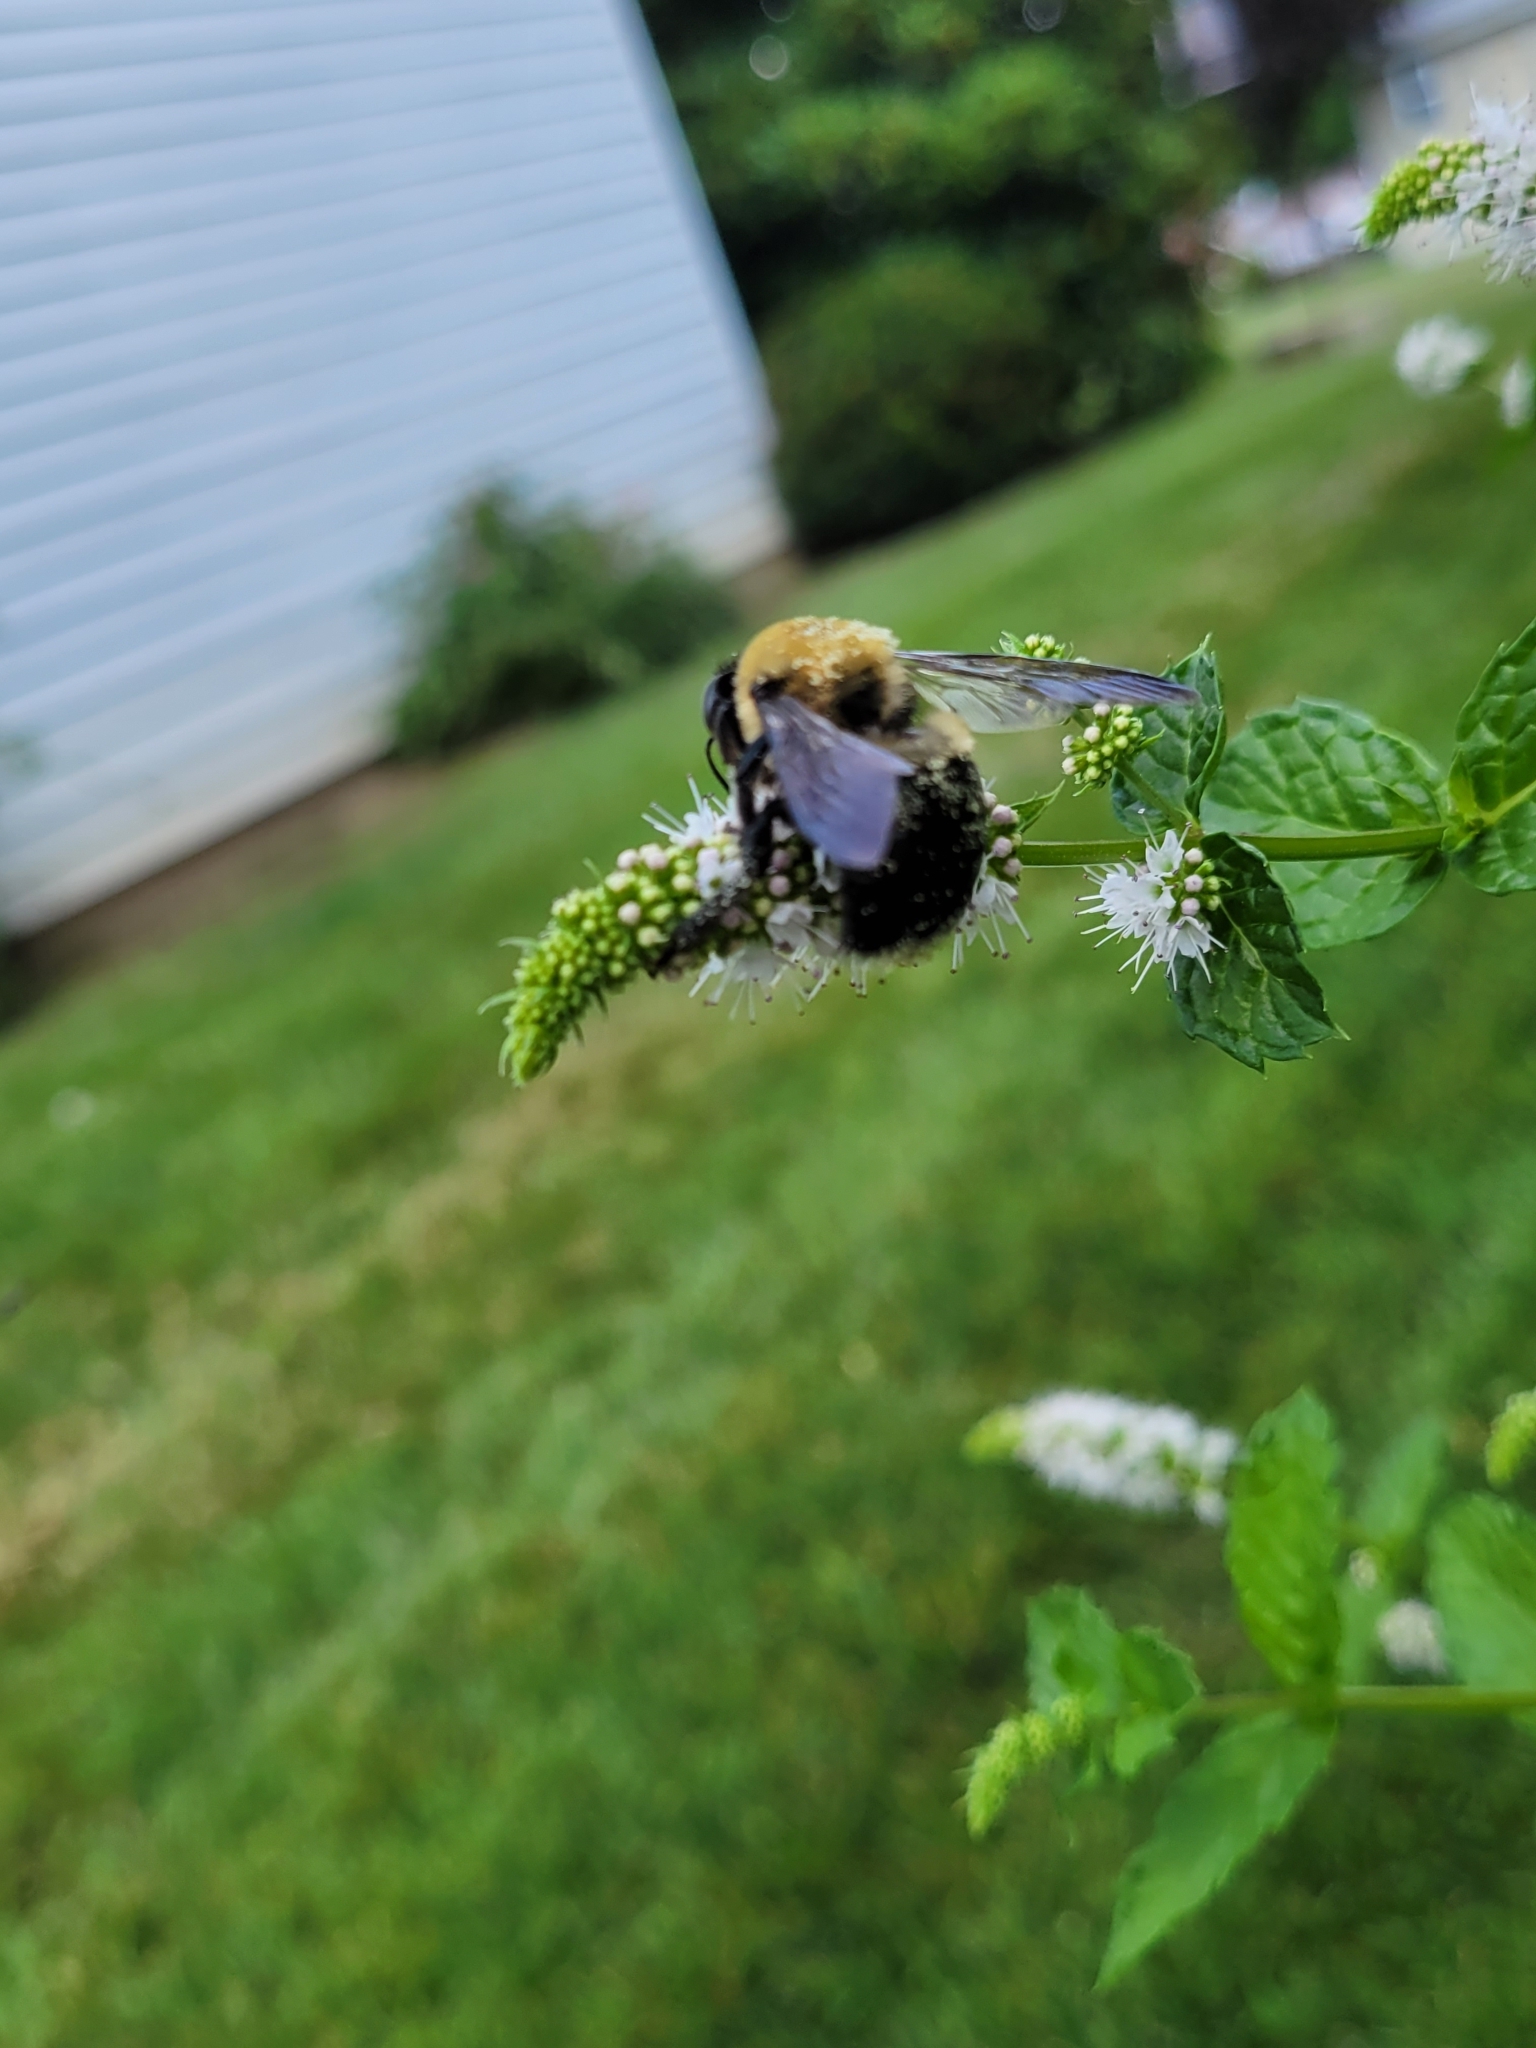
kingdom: Animalia
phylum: Arthropoda
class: Insecta
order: Hymenoptera
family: Apidae
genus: Xylocopa
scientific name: Xylocopa virginica
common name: Carpenter bee
